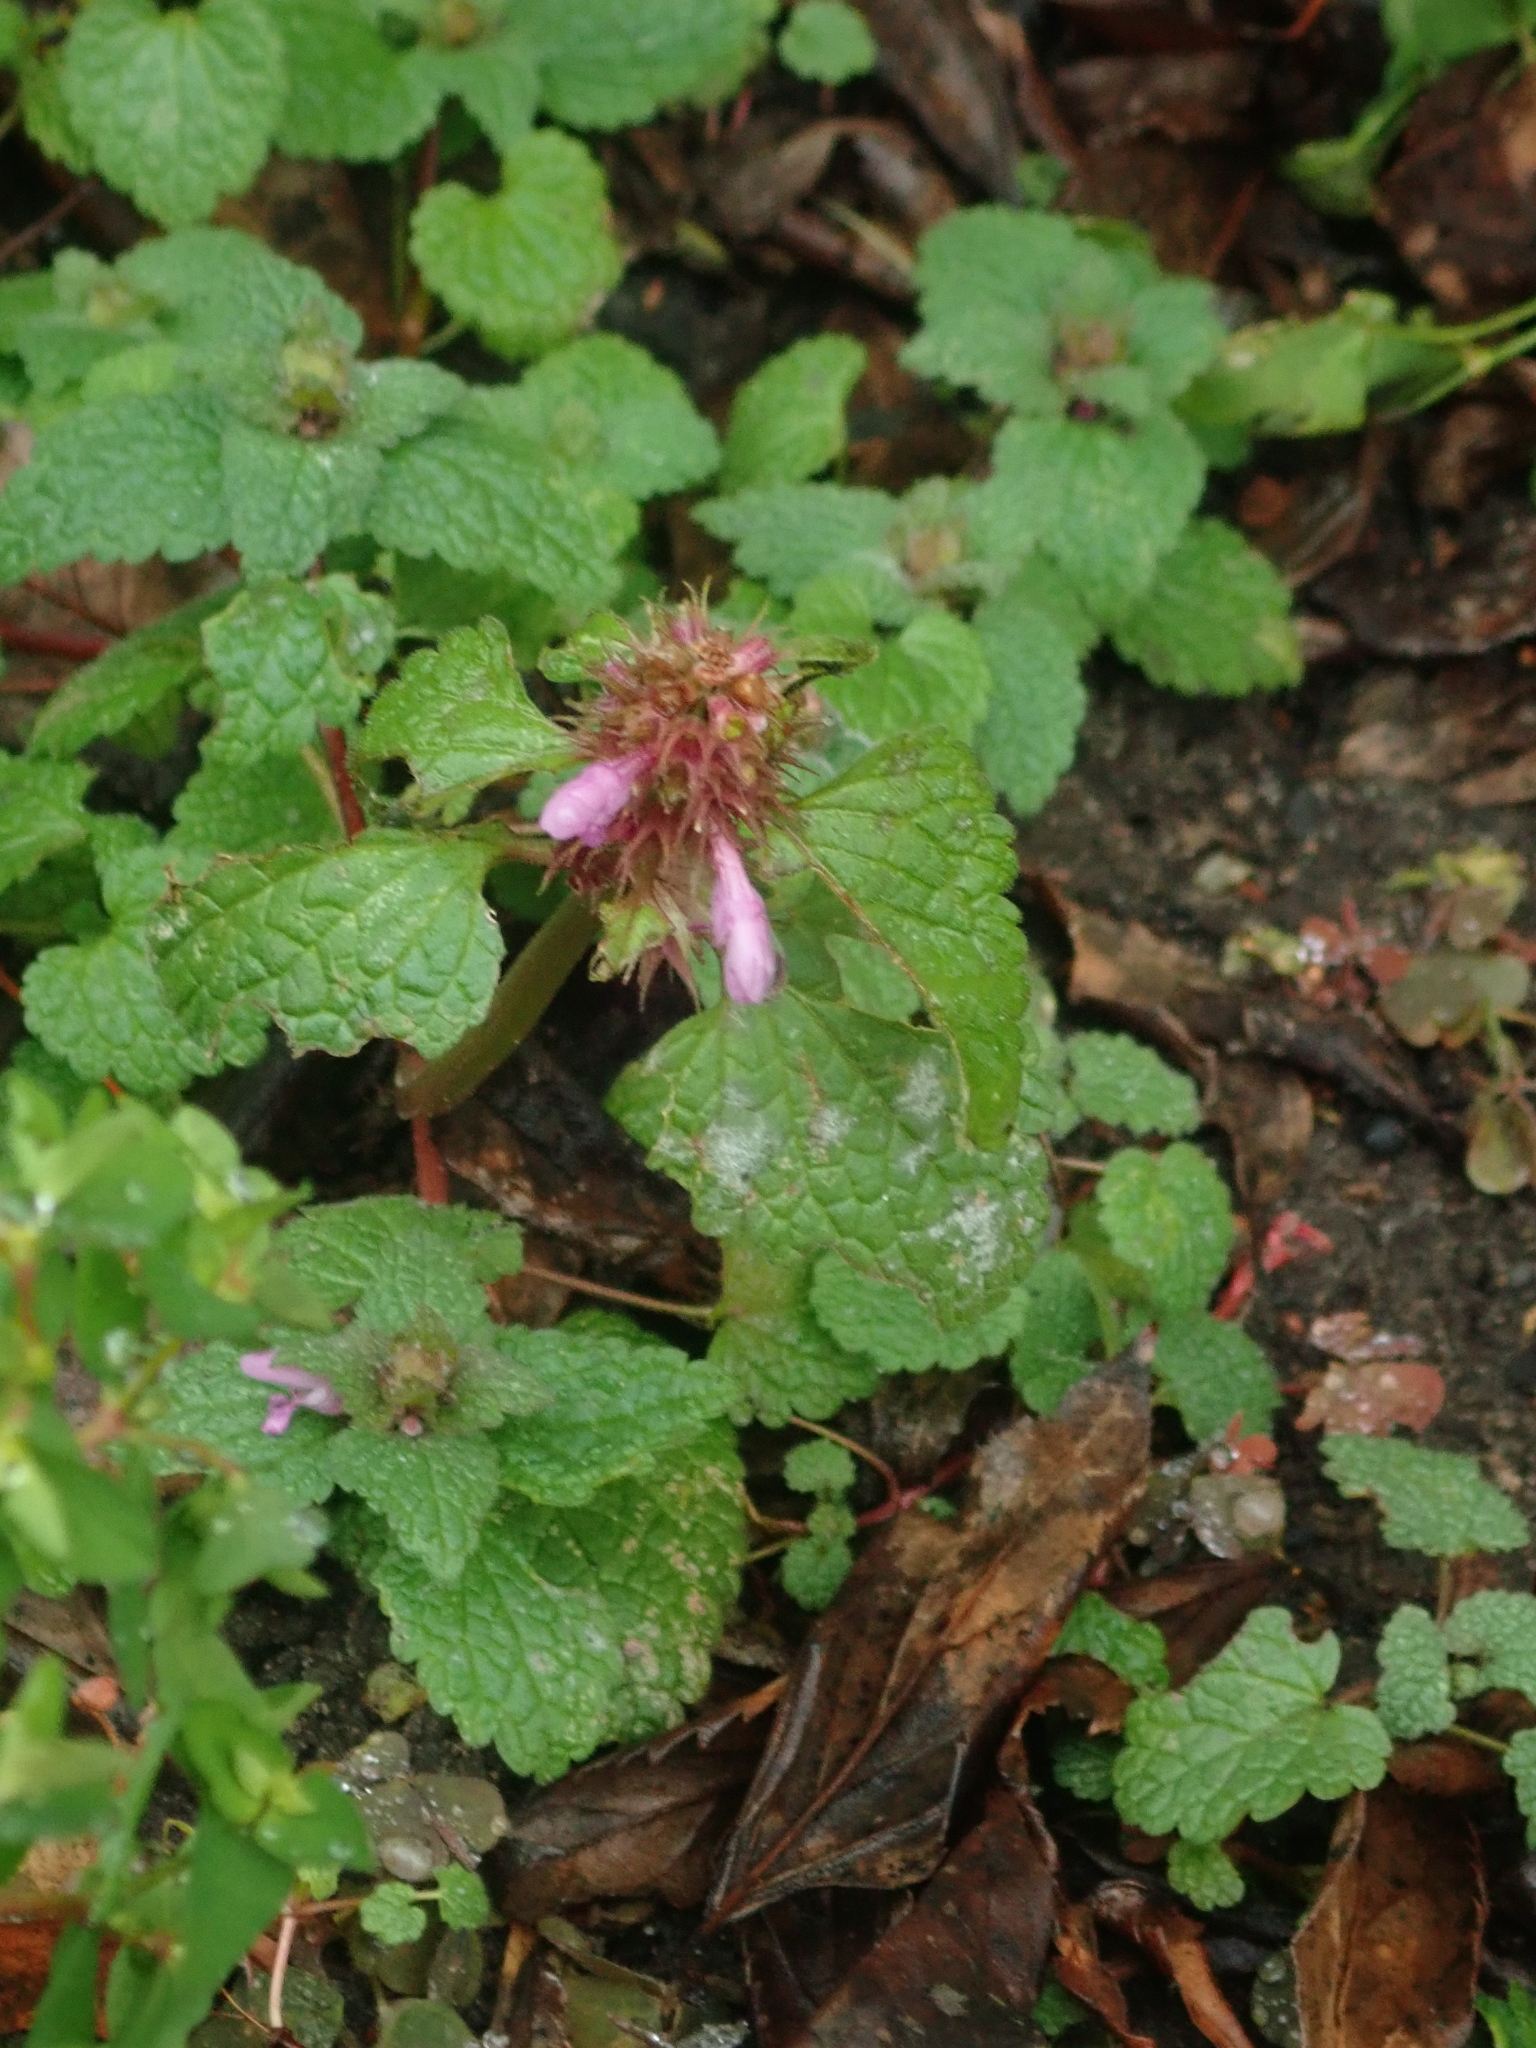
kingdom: Plantae
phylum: Tracheophyta
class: Magnoliopsida
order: Lamiales
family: Lamiaceae
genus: Lamium
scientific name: Lamium purpureum
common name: Red dead-nettle
